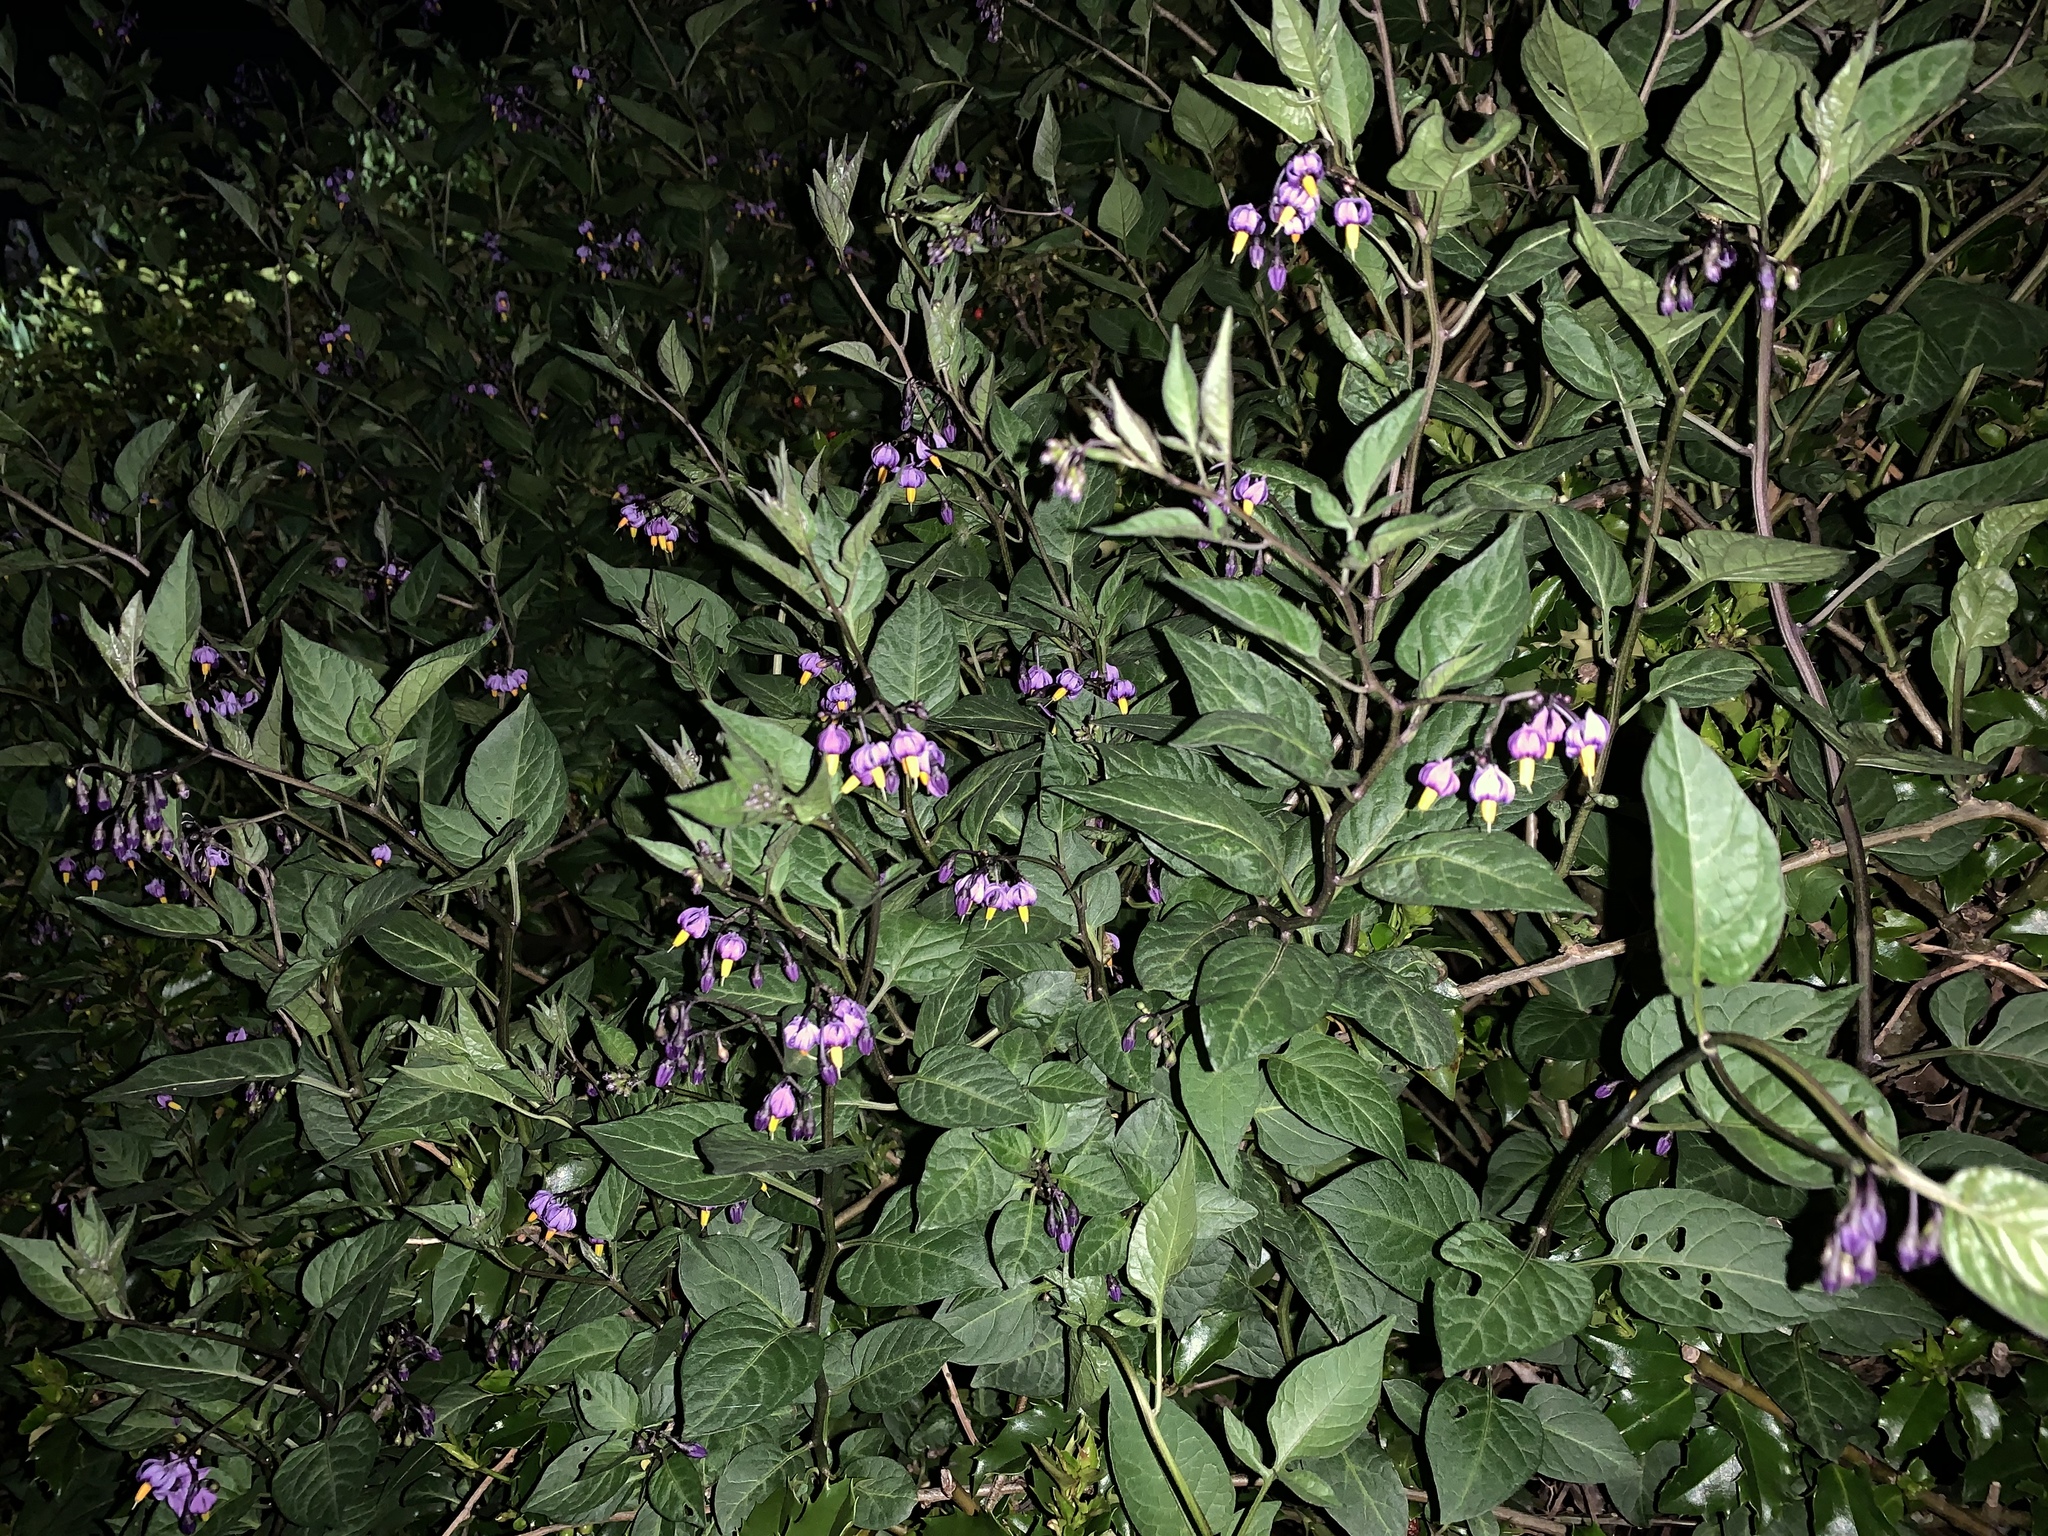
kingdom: Plantae
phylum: Tracheophyta
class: Magnoliopsida
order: Solanales
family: Solanaceae
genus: Solanum
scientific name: Solanum dulcamara
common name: Climbing nightshade
